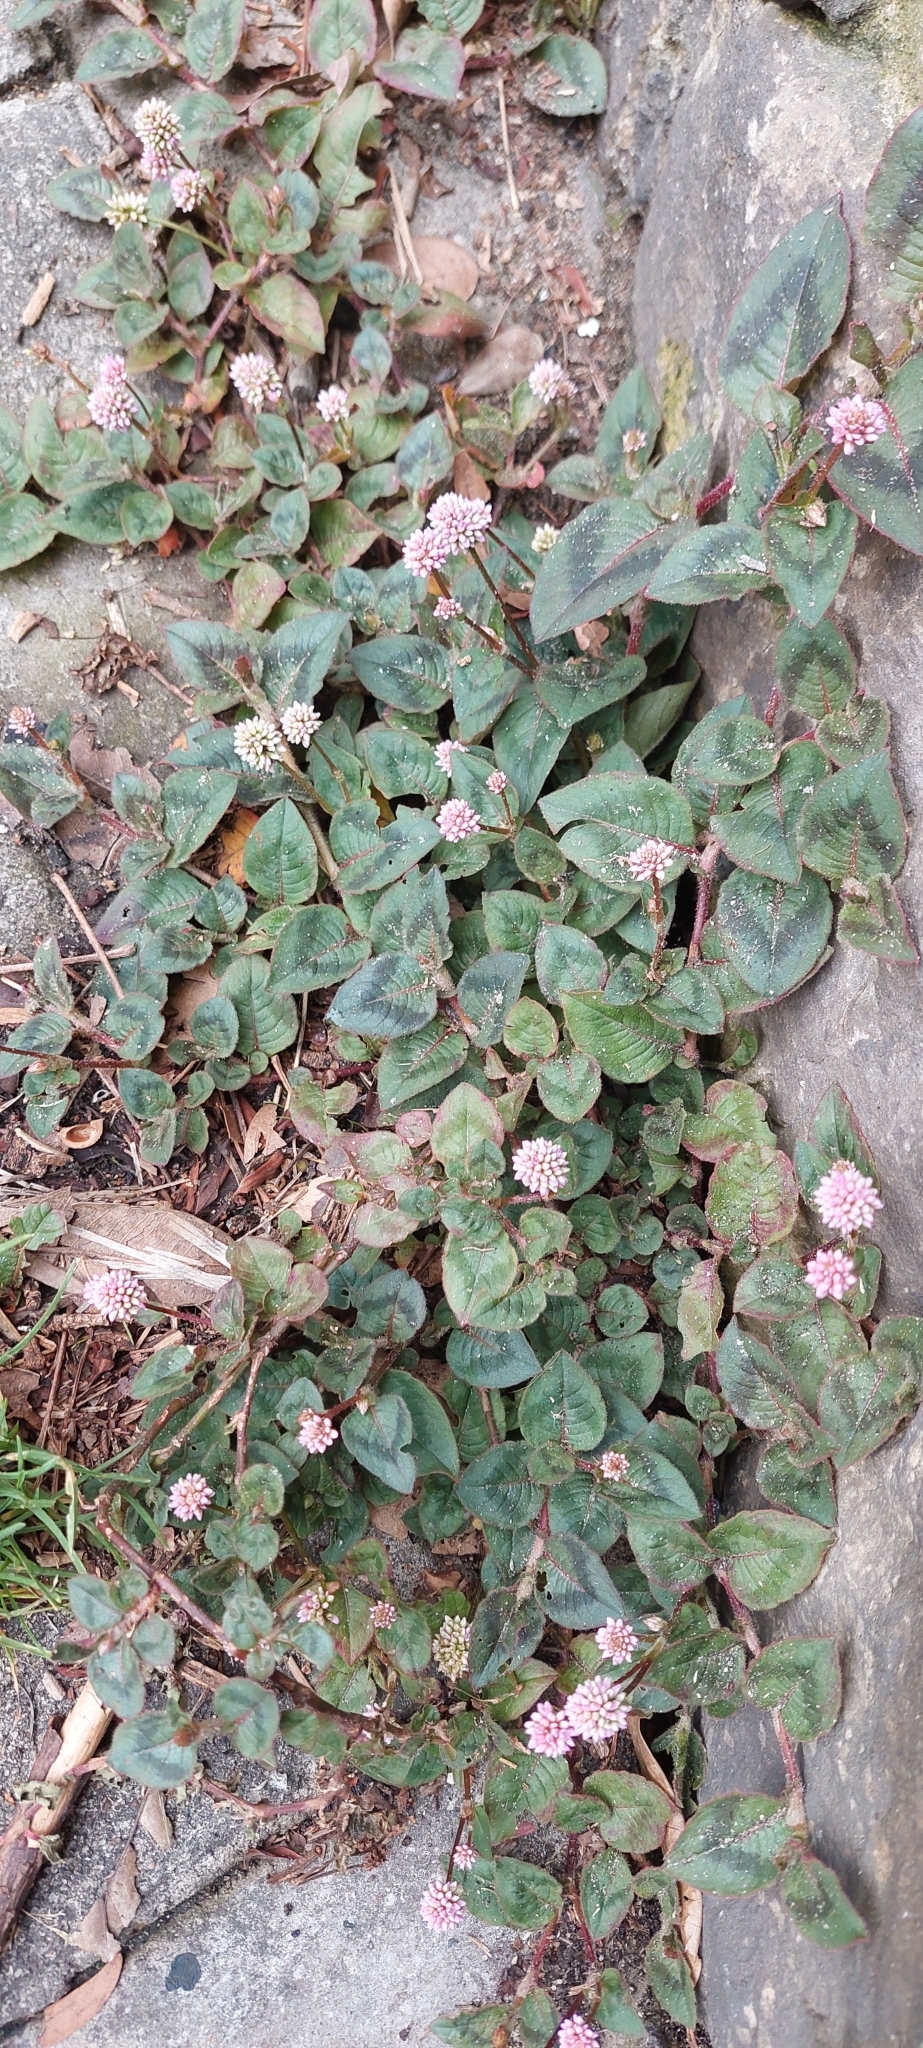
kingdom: Plantae
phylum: Tracheophyta
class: Magnoliopsida
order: Caryophyllales
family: Polygonaceae
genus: Persicaria
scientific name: Persicaria capitata
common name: Pinkhead smartweed
